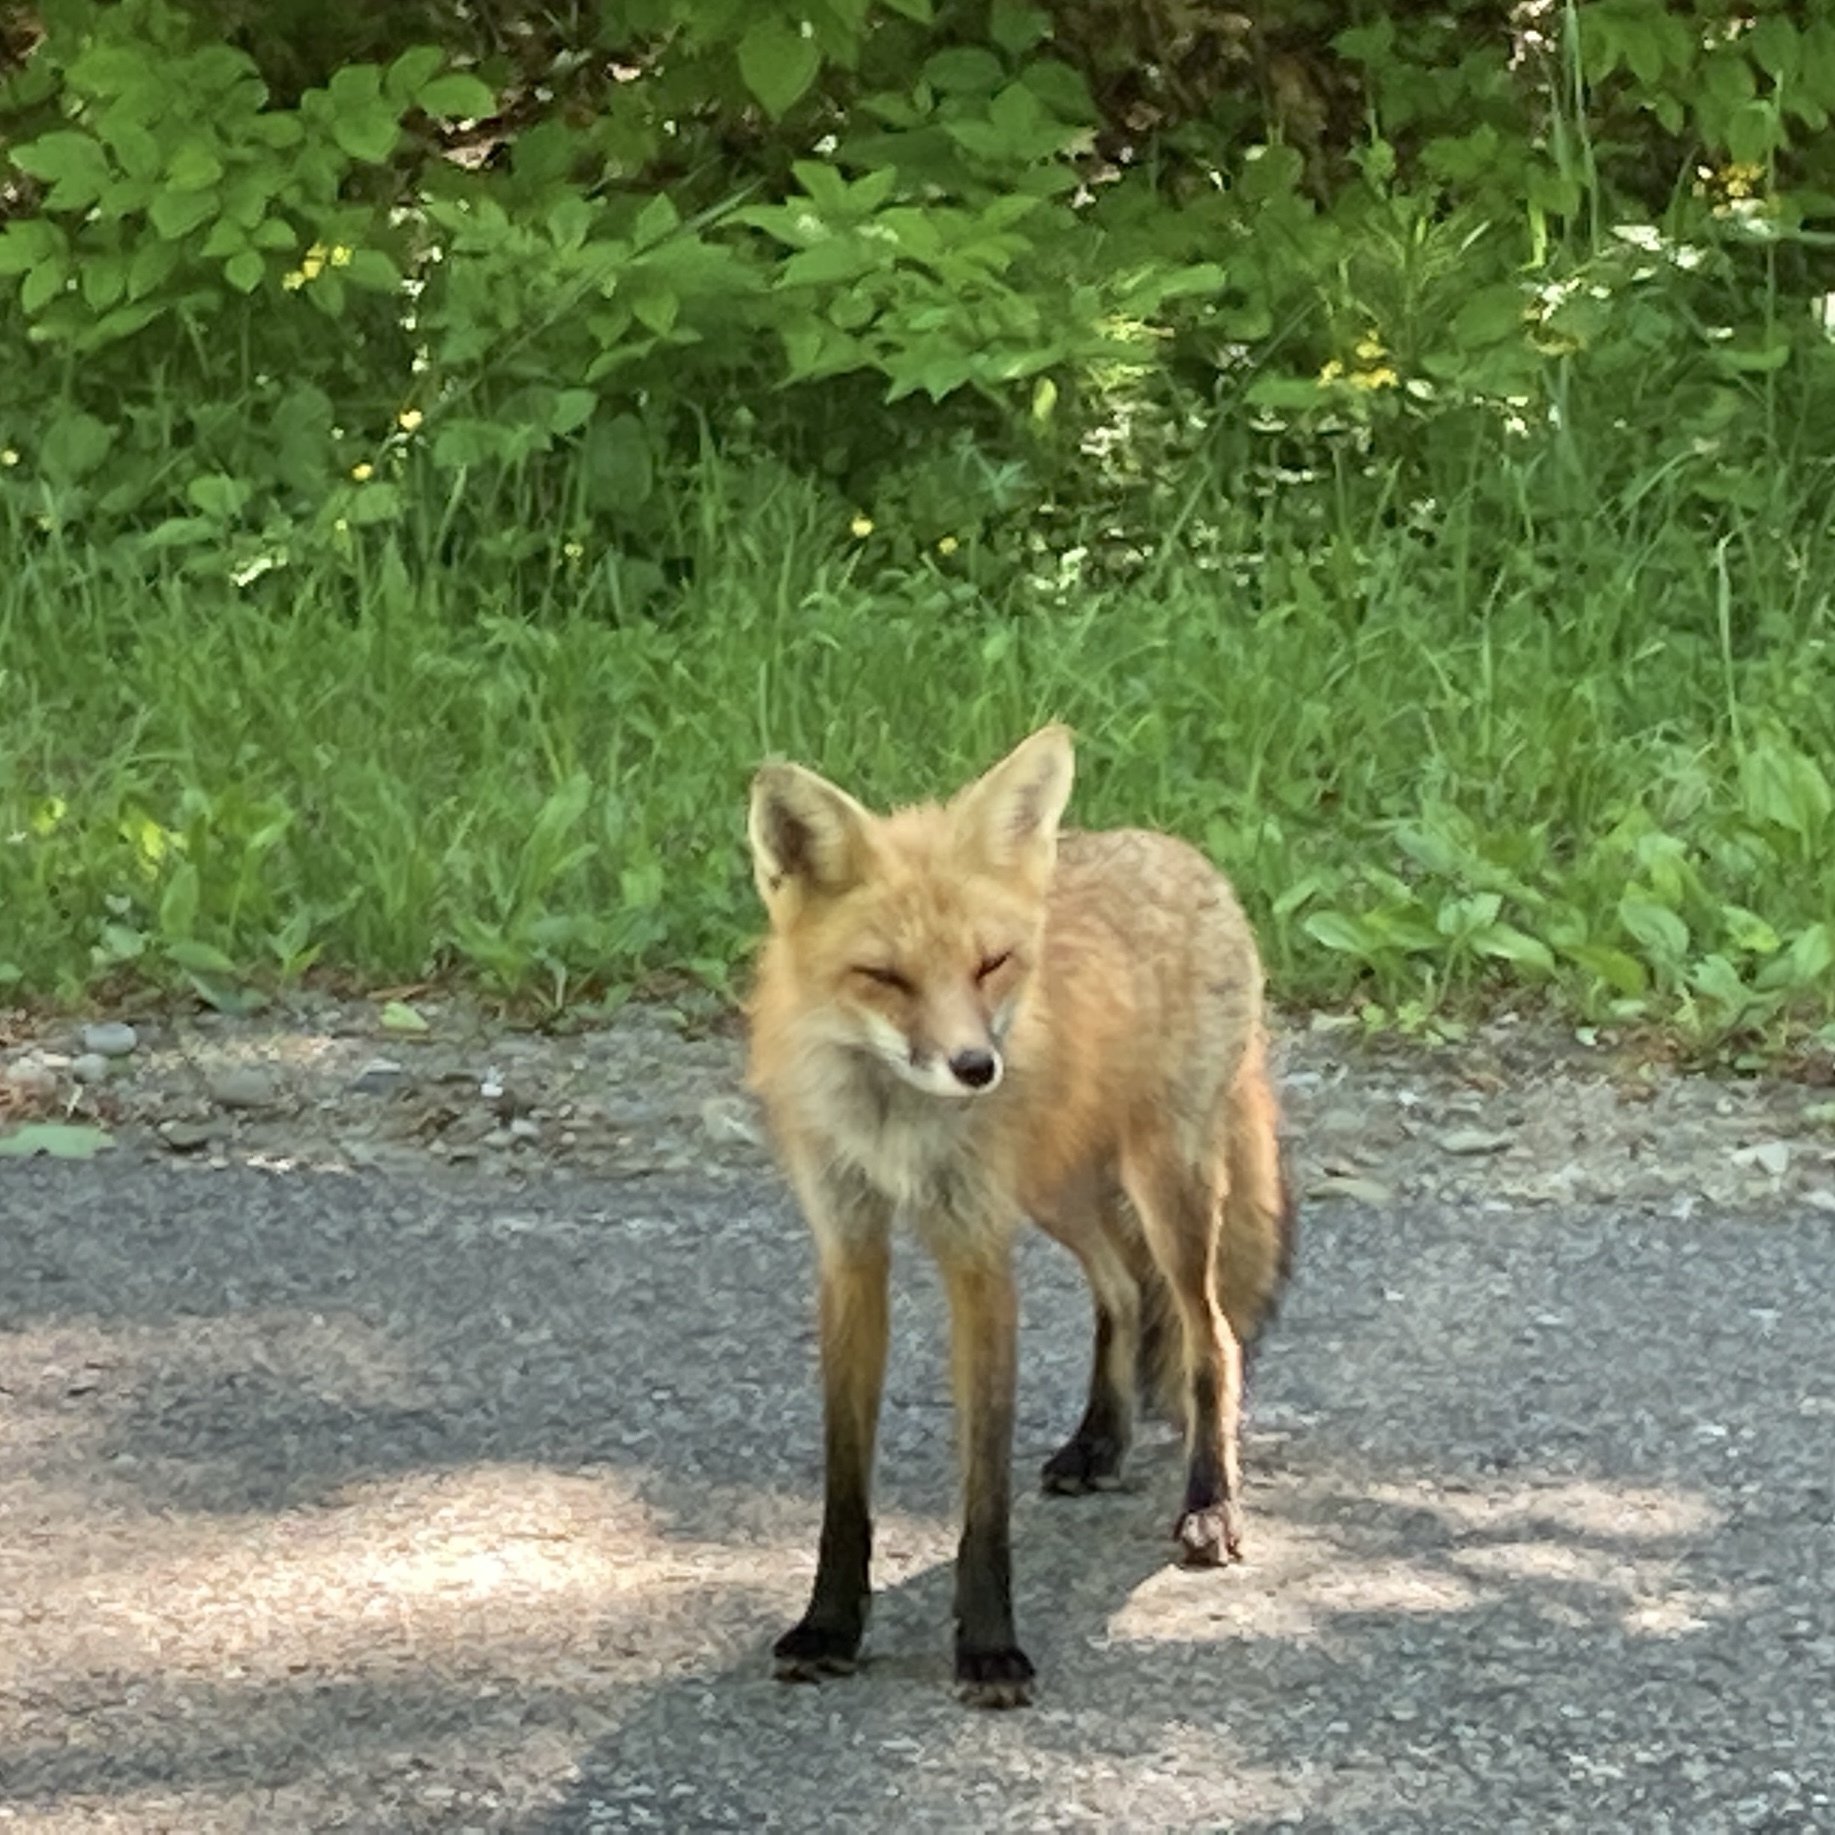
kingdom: Animalia
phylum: Chordata
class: Mammalia
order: Carnivora
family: Canidae
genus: Vulpes
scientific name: Vulpes vulpes
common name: Red fox
